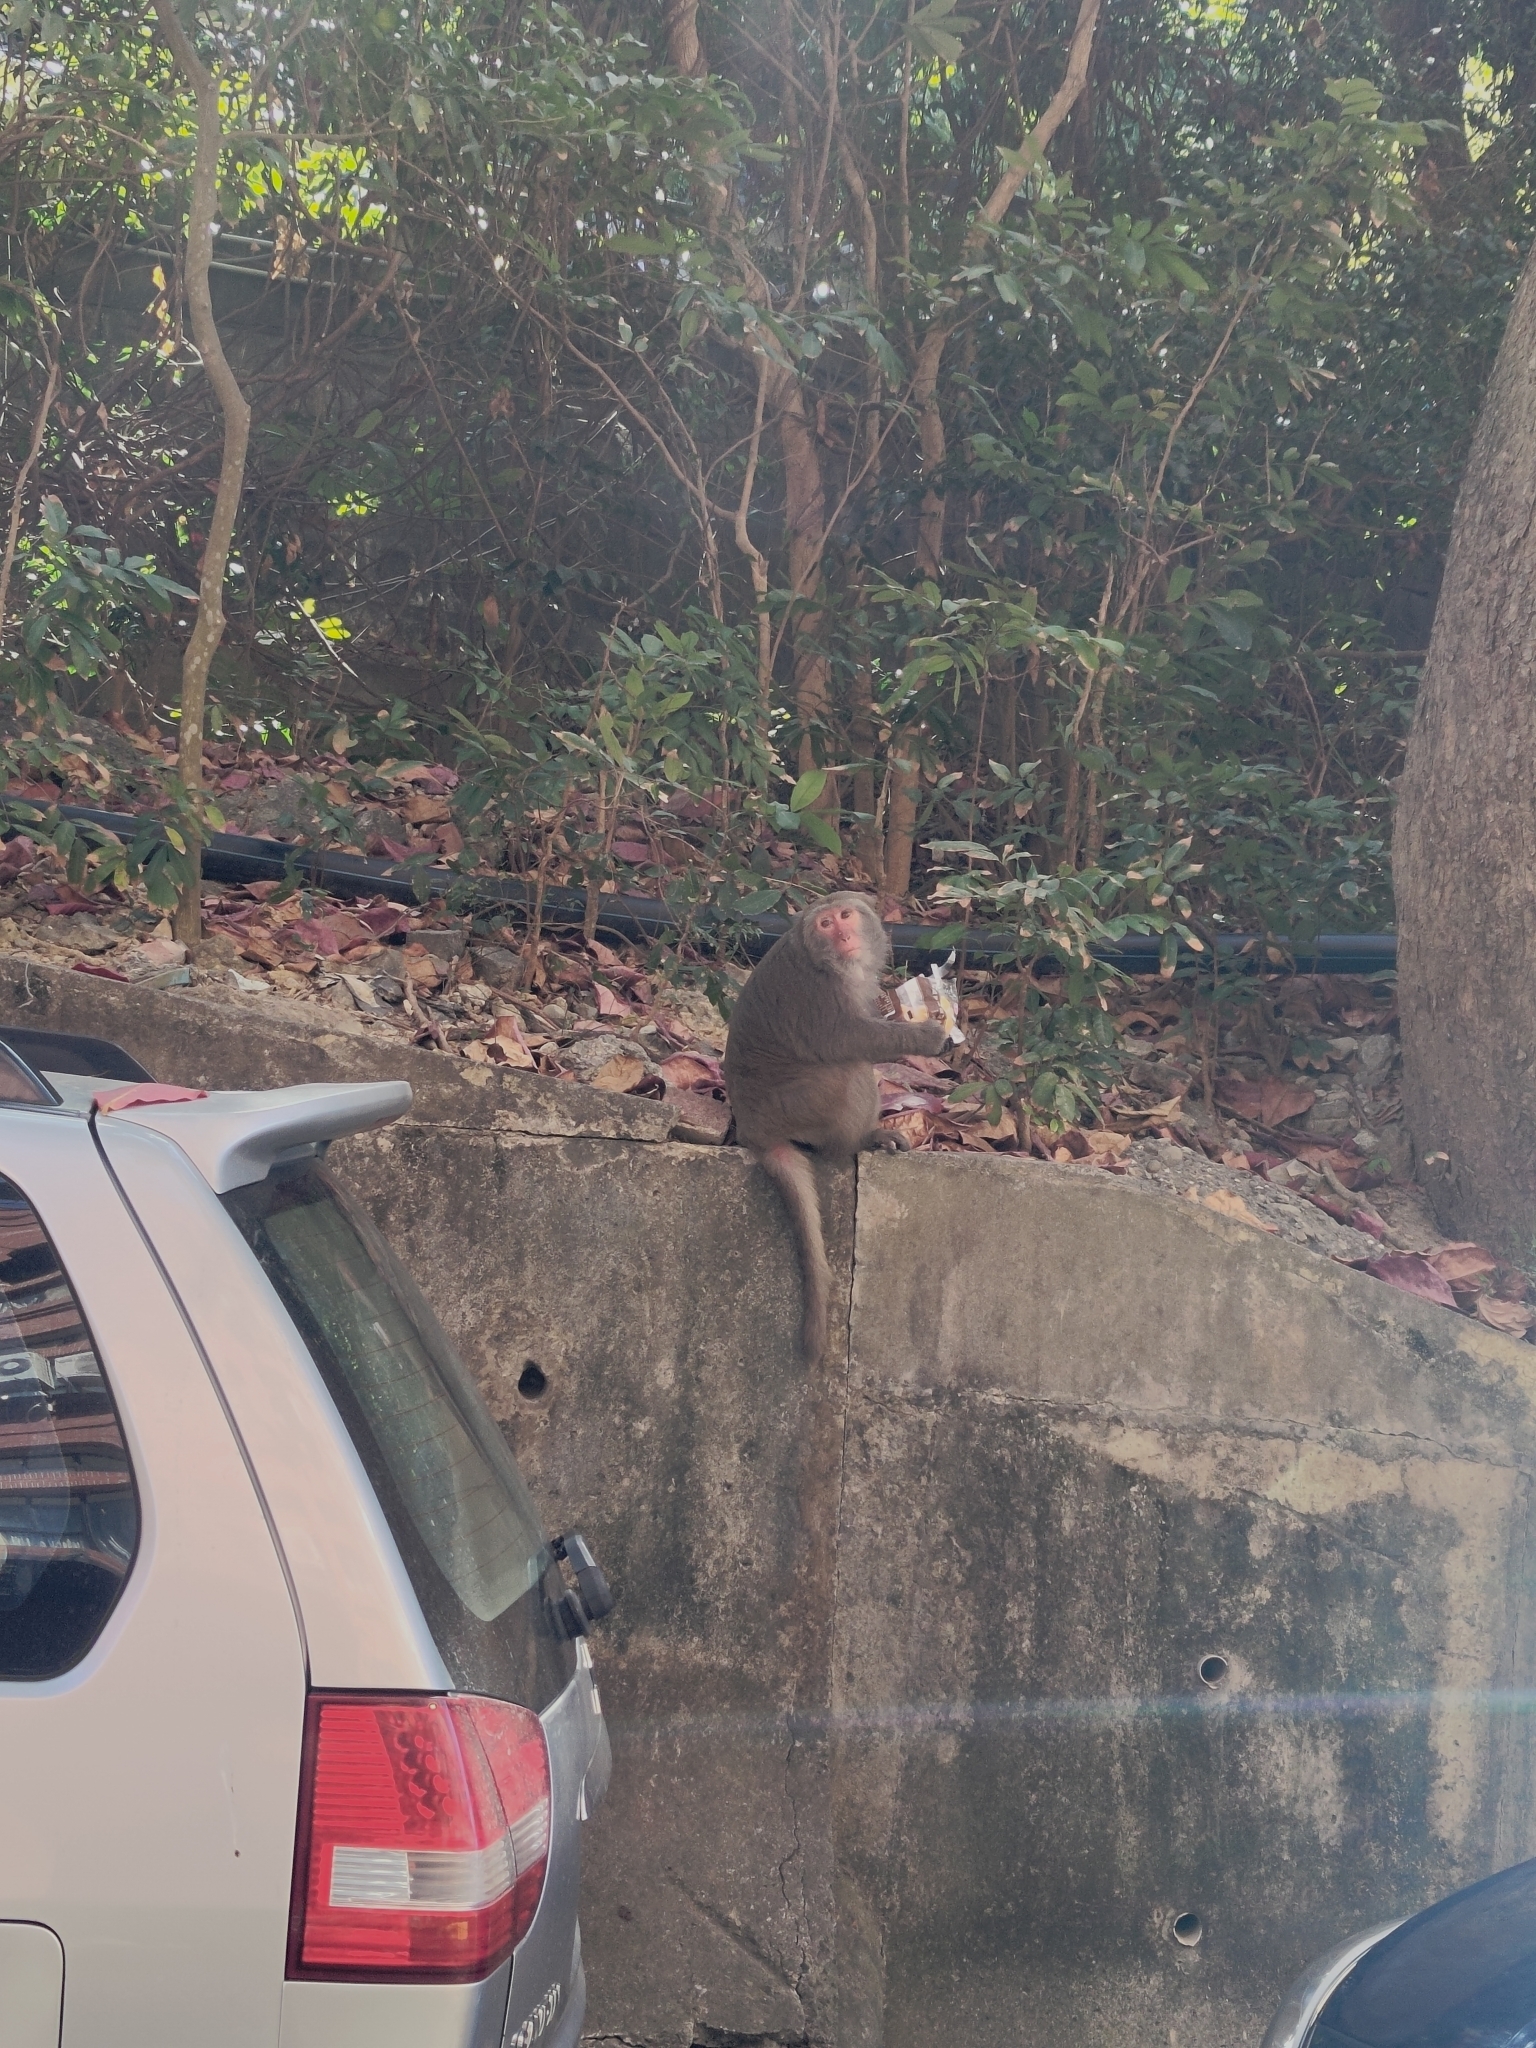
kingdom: Animalia
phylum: Chordata
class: Mammalia
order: Primates
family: Cercopithecidae
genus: Macaca
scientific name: Macaca cyclopis
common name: Formosan rock macaque
